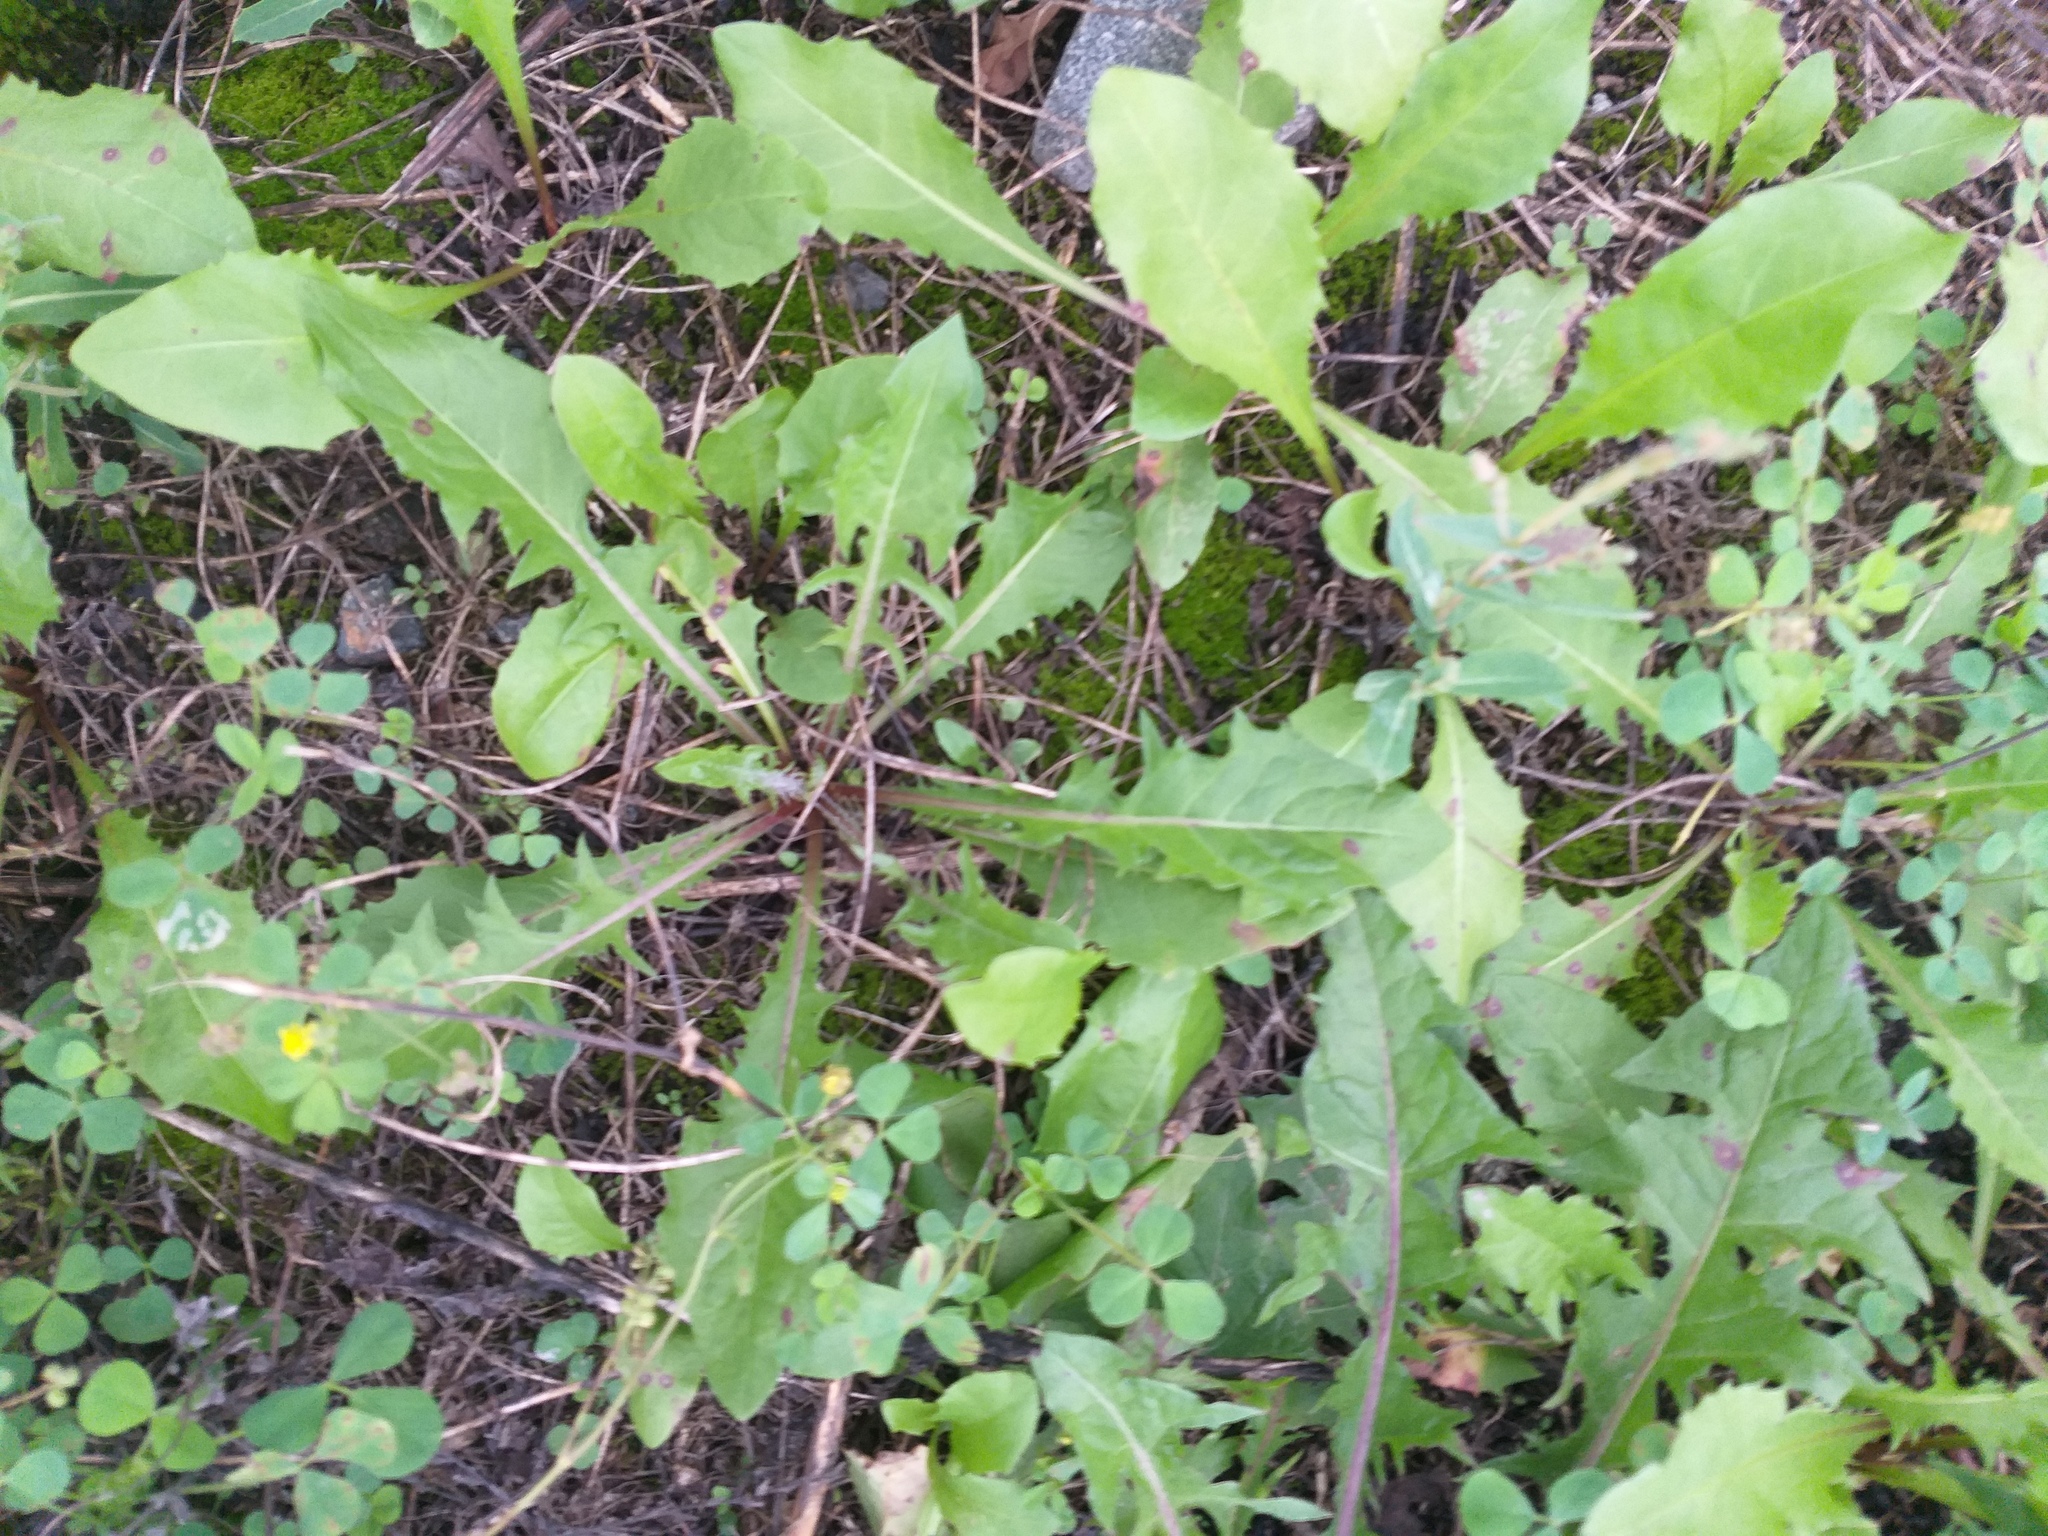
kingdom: Plantae
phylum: Tracheophyta
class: Magnoliopsida
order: Asterales
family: Asteraceae
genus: Taraxacum
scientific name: Taraxacum officinale
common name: Common dandelion
